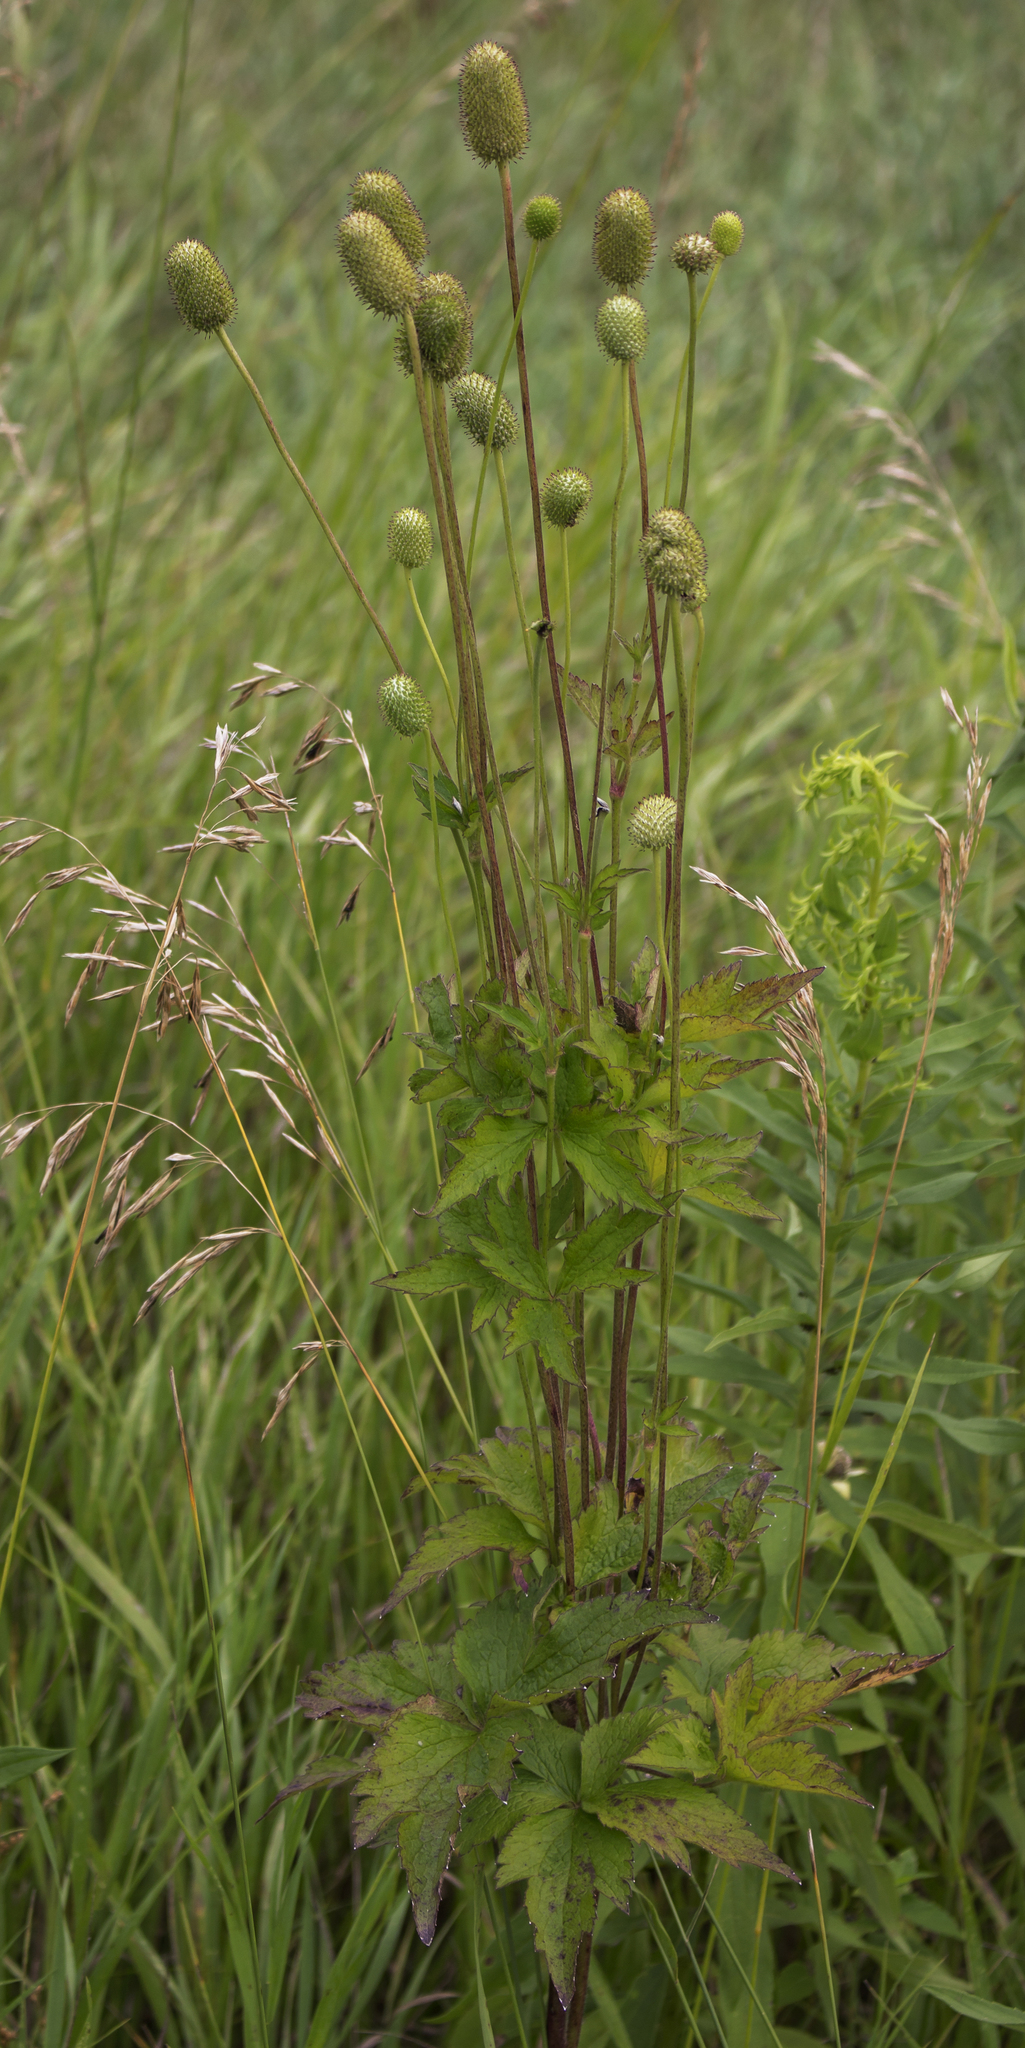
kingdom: Plantae
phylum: Tracheophyta
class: Magnoliopsida
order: Ranunculales
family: Ranunculaceae
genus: Anemone
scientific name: Anemone virginiana
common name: Tall anemone
